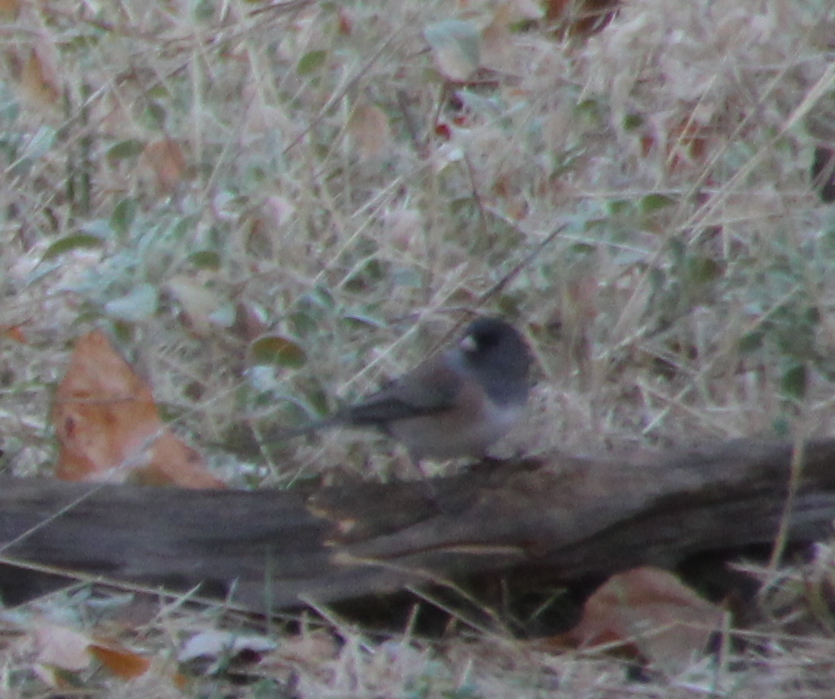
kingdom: Animalia
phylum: Chordata
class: Aves
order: Passeriformes
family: Passerellidae
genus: Junco
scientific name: Junco hyemalis
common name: Dark-eyed junco
